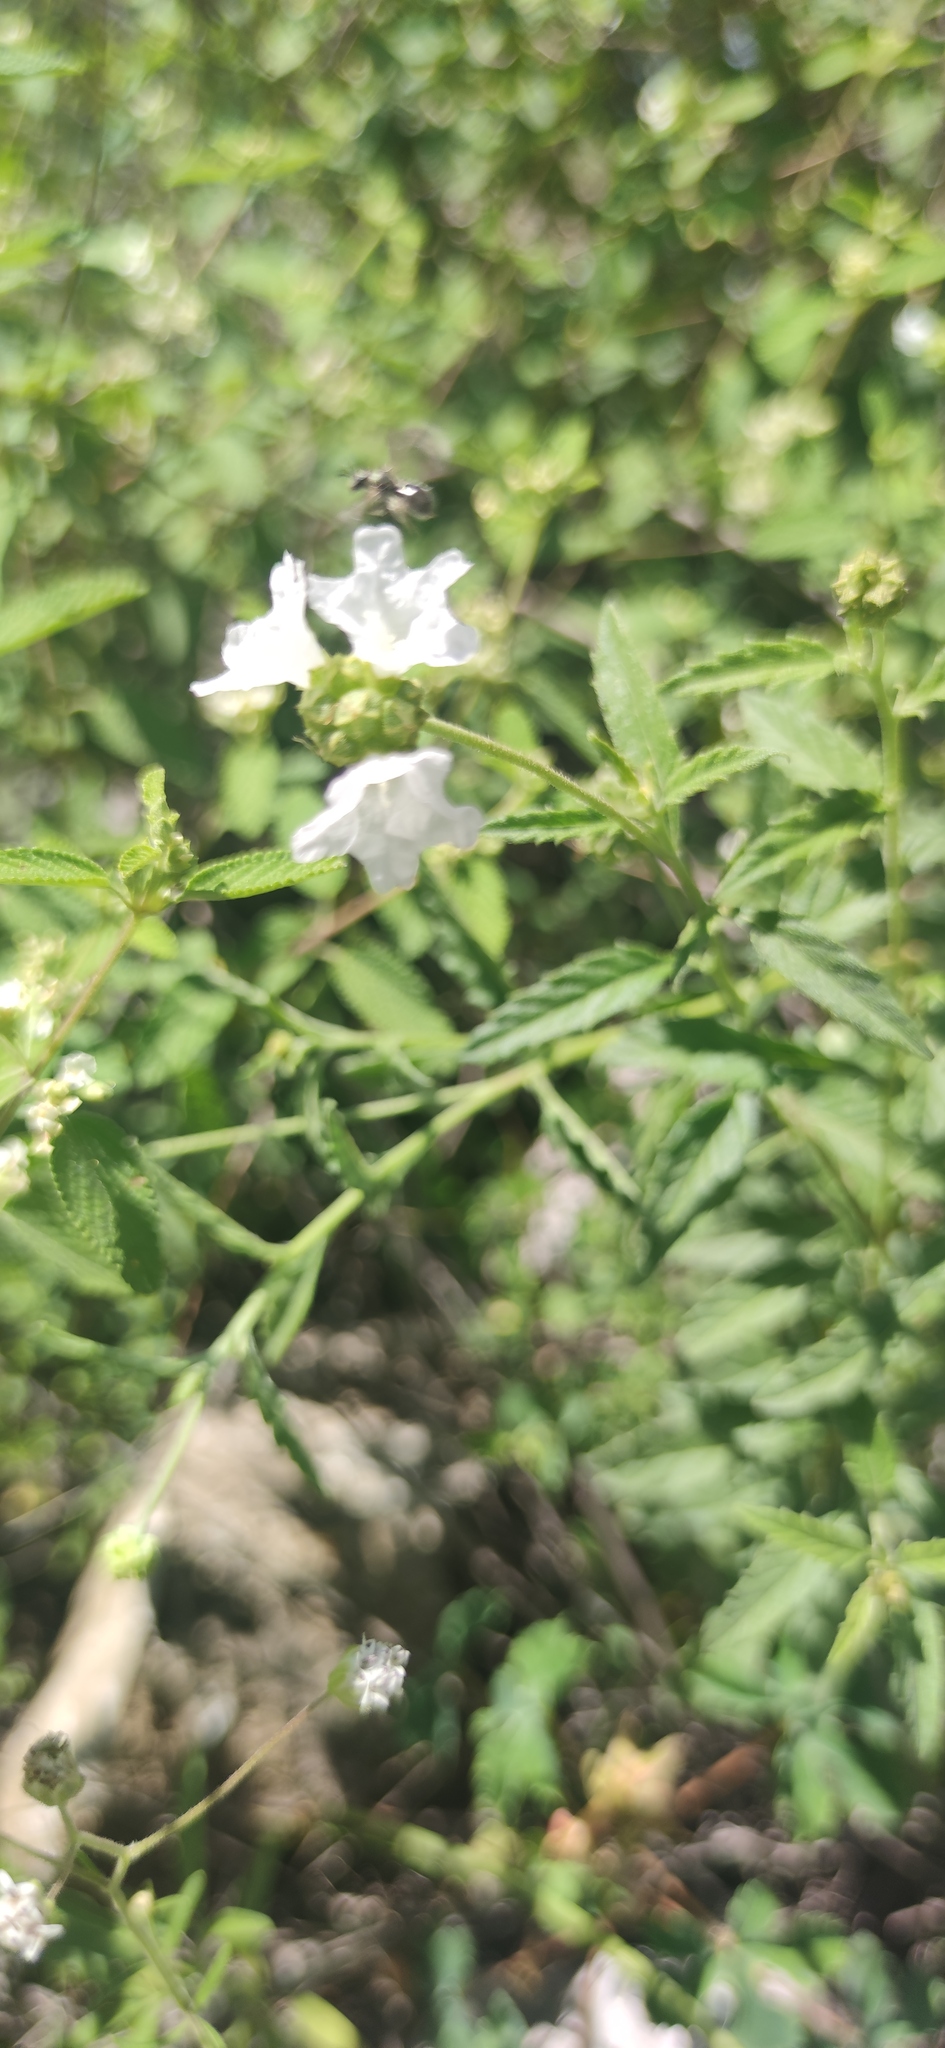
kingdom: Plantae
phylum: Tracheophyta
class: Magnoliopsida
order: Boraginales
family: Cordiaceae
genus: Varronia
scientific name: Varronia podocephala
